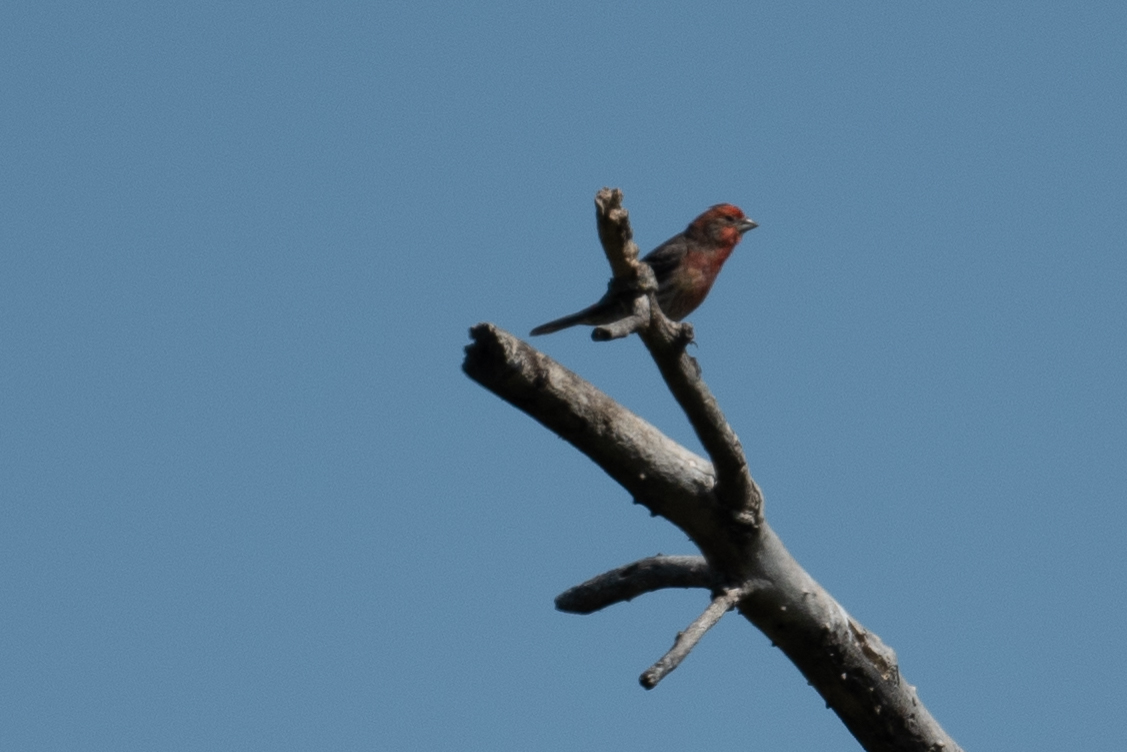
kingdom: Animalia
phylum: Chordata
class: Aves
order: Passeriformes
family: Fringillidae
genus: Haemorhous
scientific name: Haemorhous mexicanus
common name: House finch
